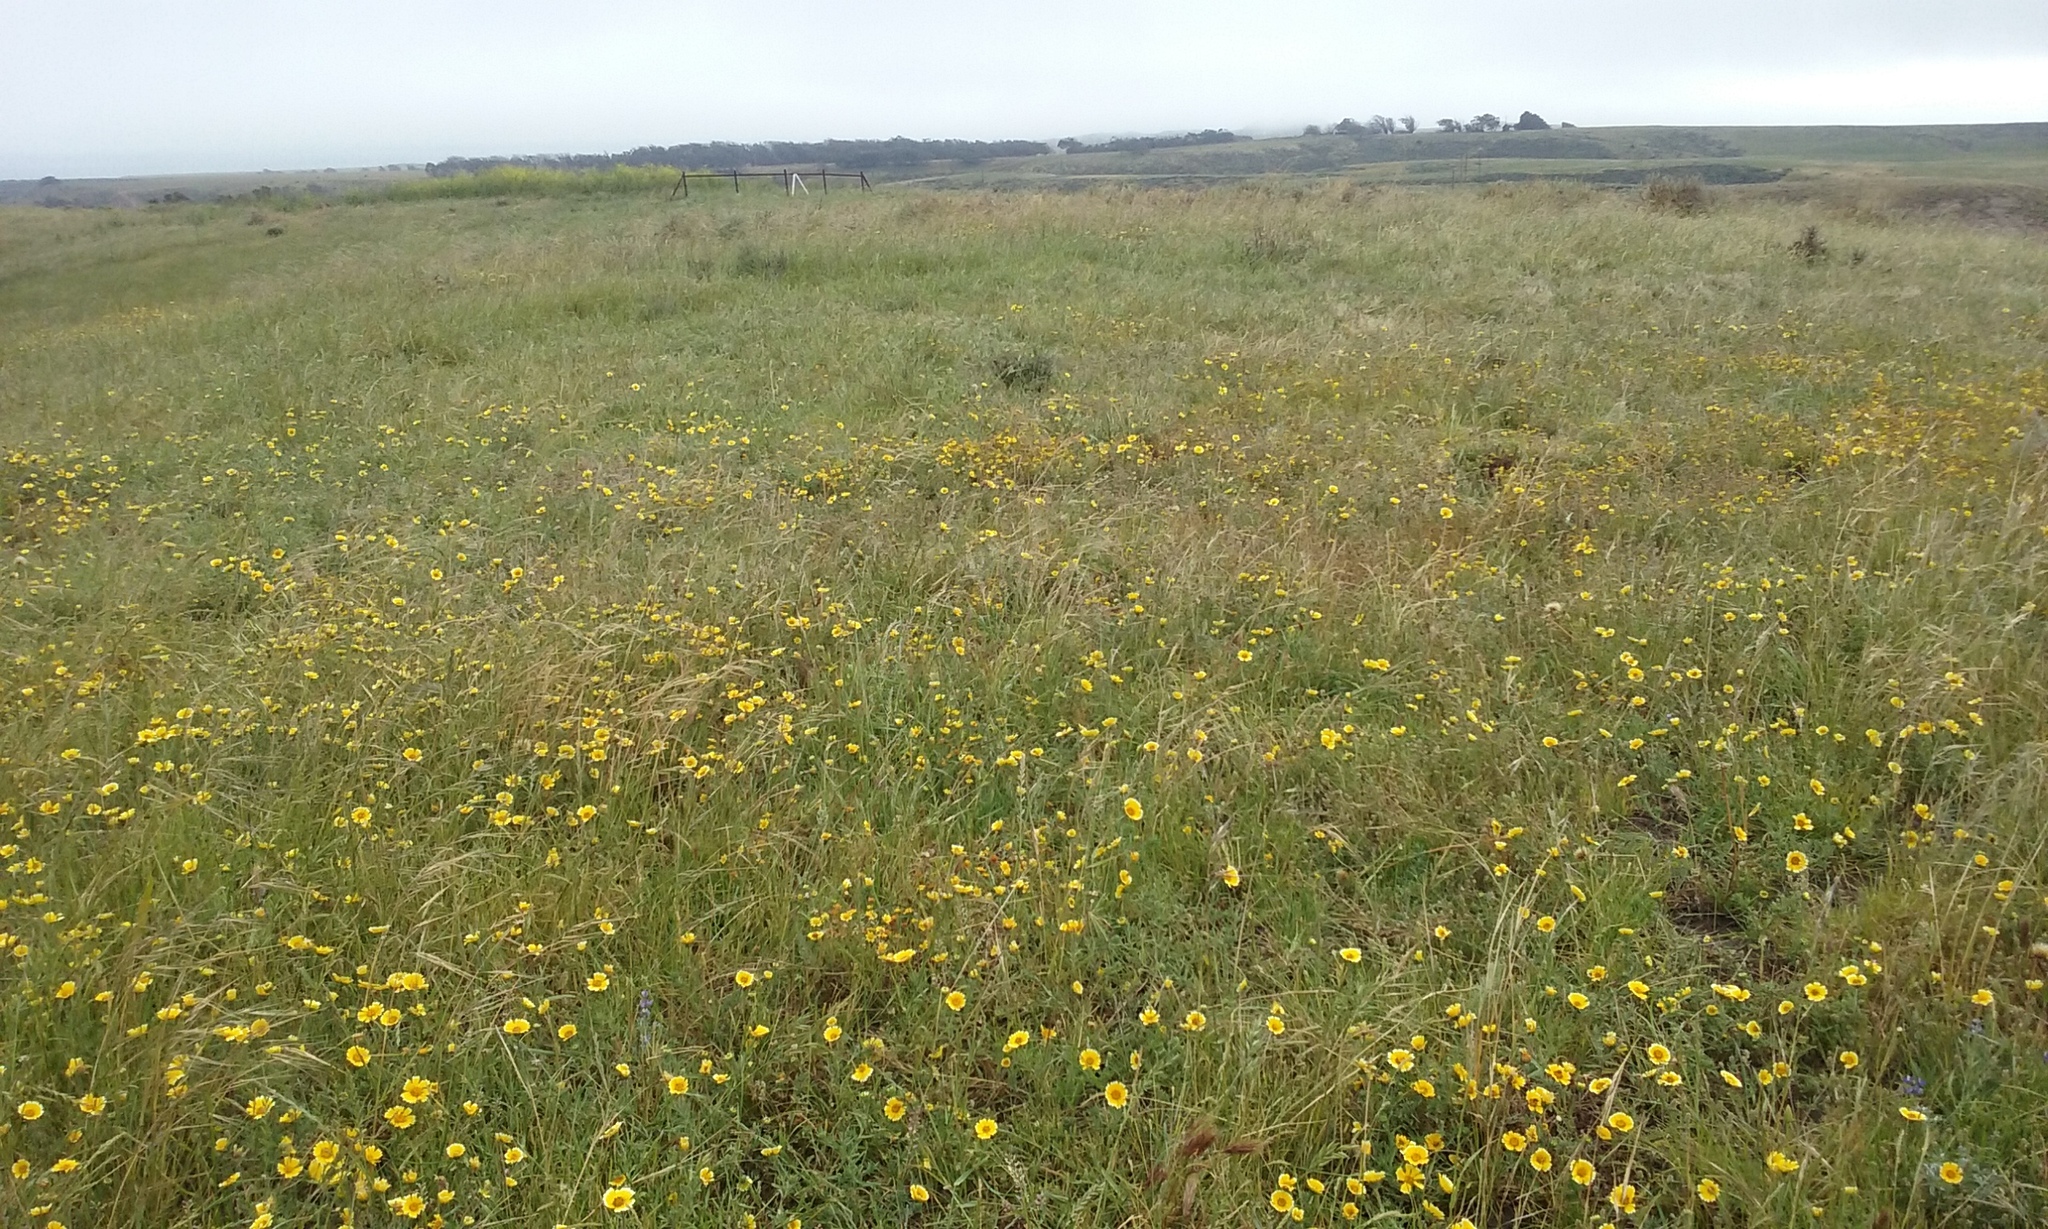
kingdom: Plantae
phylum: Tracheophyta
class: Magnoliopsida
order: Asterales
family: Asteraceae
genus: Layia
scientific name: Layia platyglossa
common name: Tidy-tips
